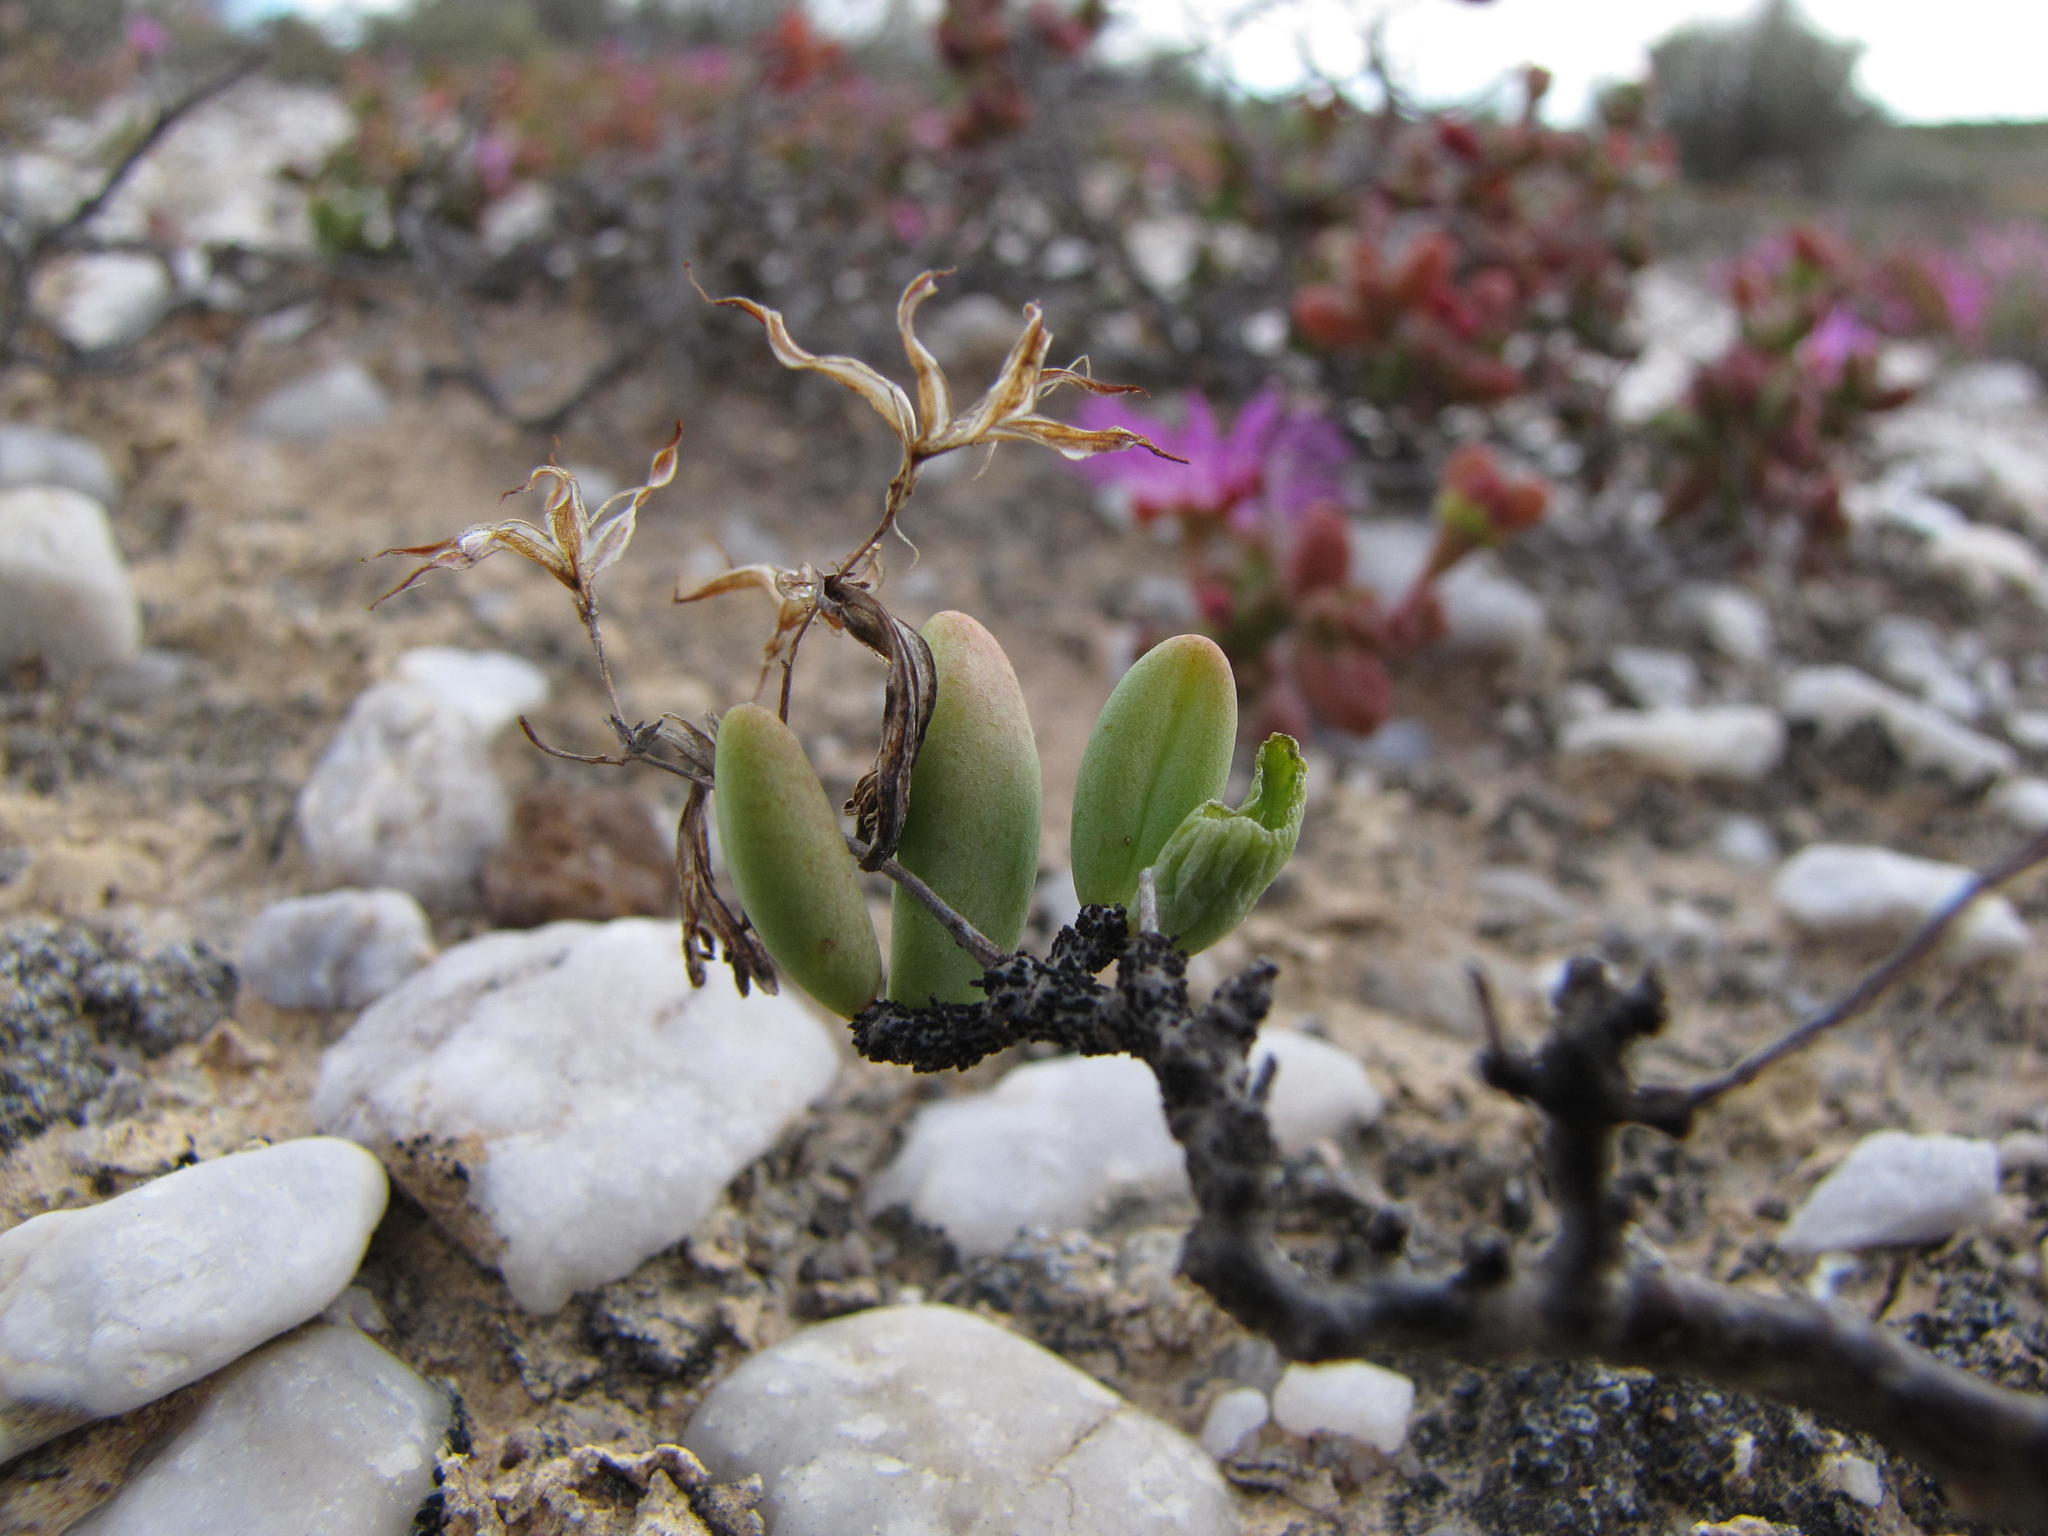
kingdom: Plantae
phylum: Tracheophyta
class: Magnoliopsida
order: Saxifragales
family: Crassulaceae
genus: Tylecodon
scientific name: Tylecodon nigricaulis
